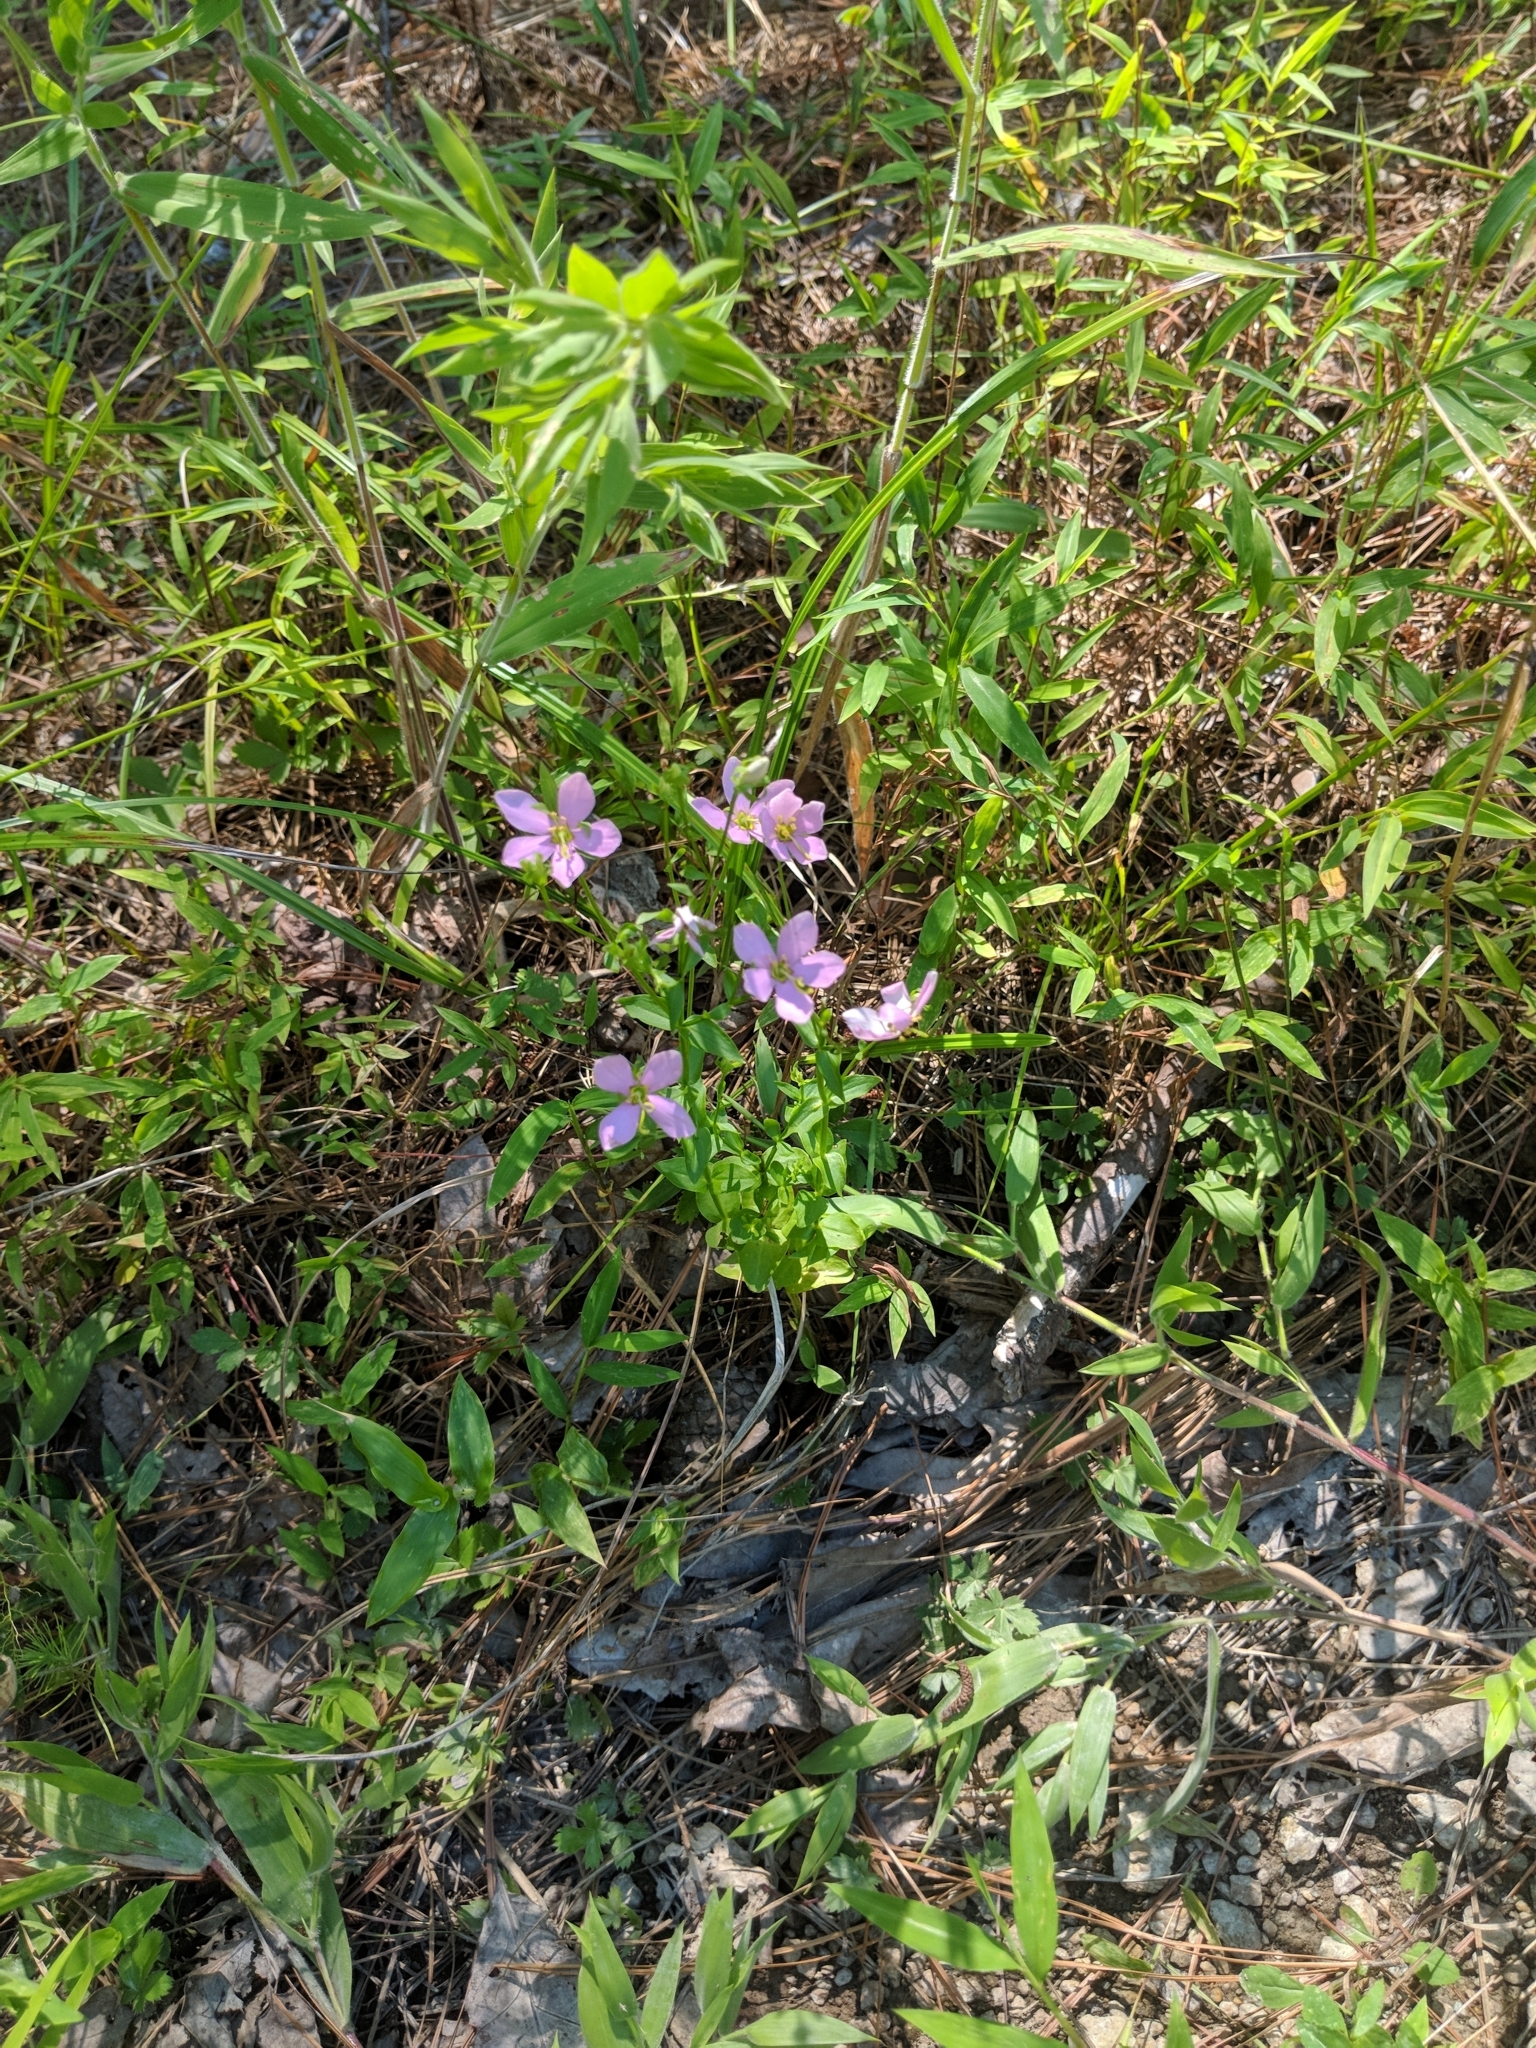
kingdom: Plantae
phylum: Tracheophyta
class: Magnoliopsida
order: Gentianales
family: Gentianaceae
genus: Sabatia
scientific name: Sabatia angularis
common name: Rose-pink
